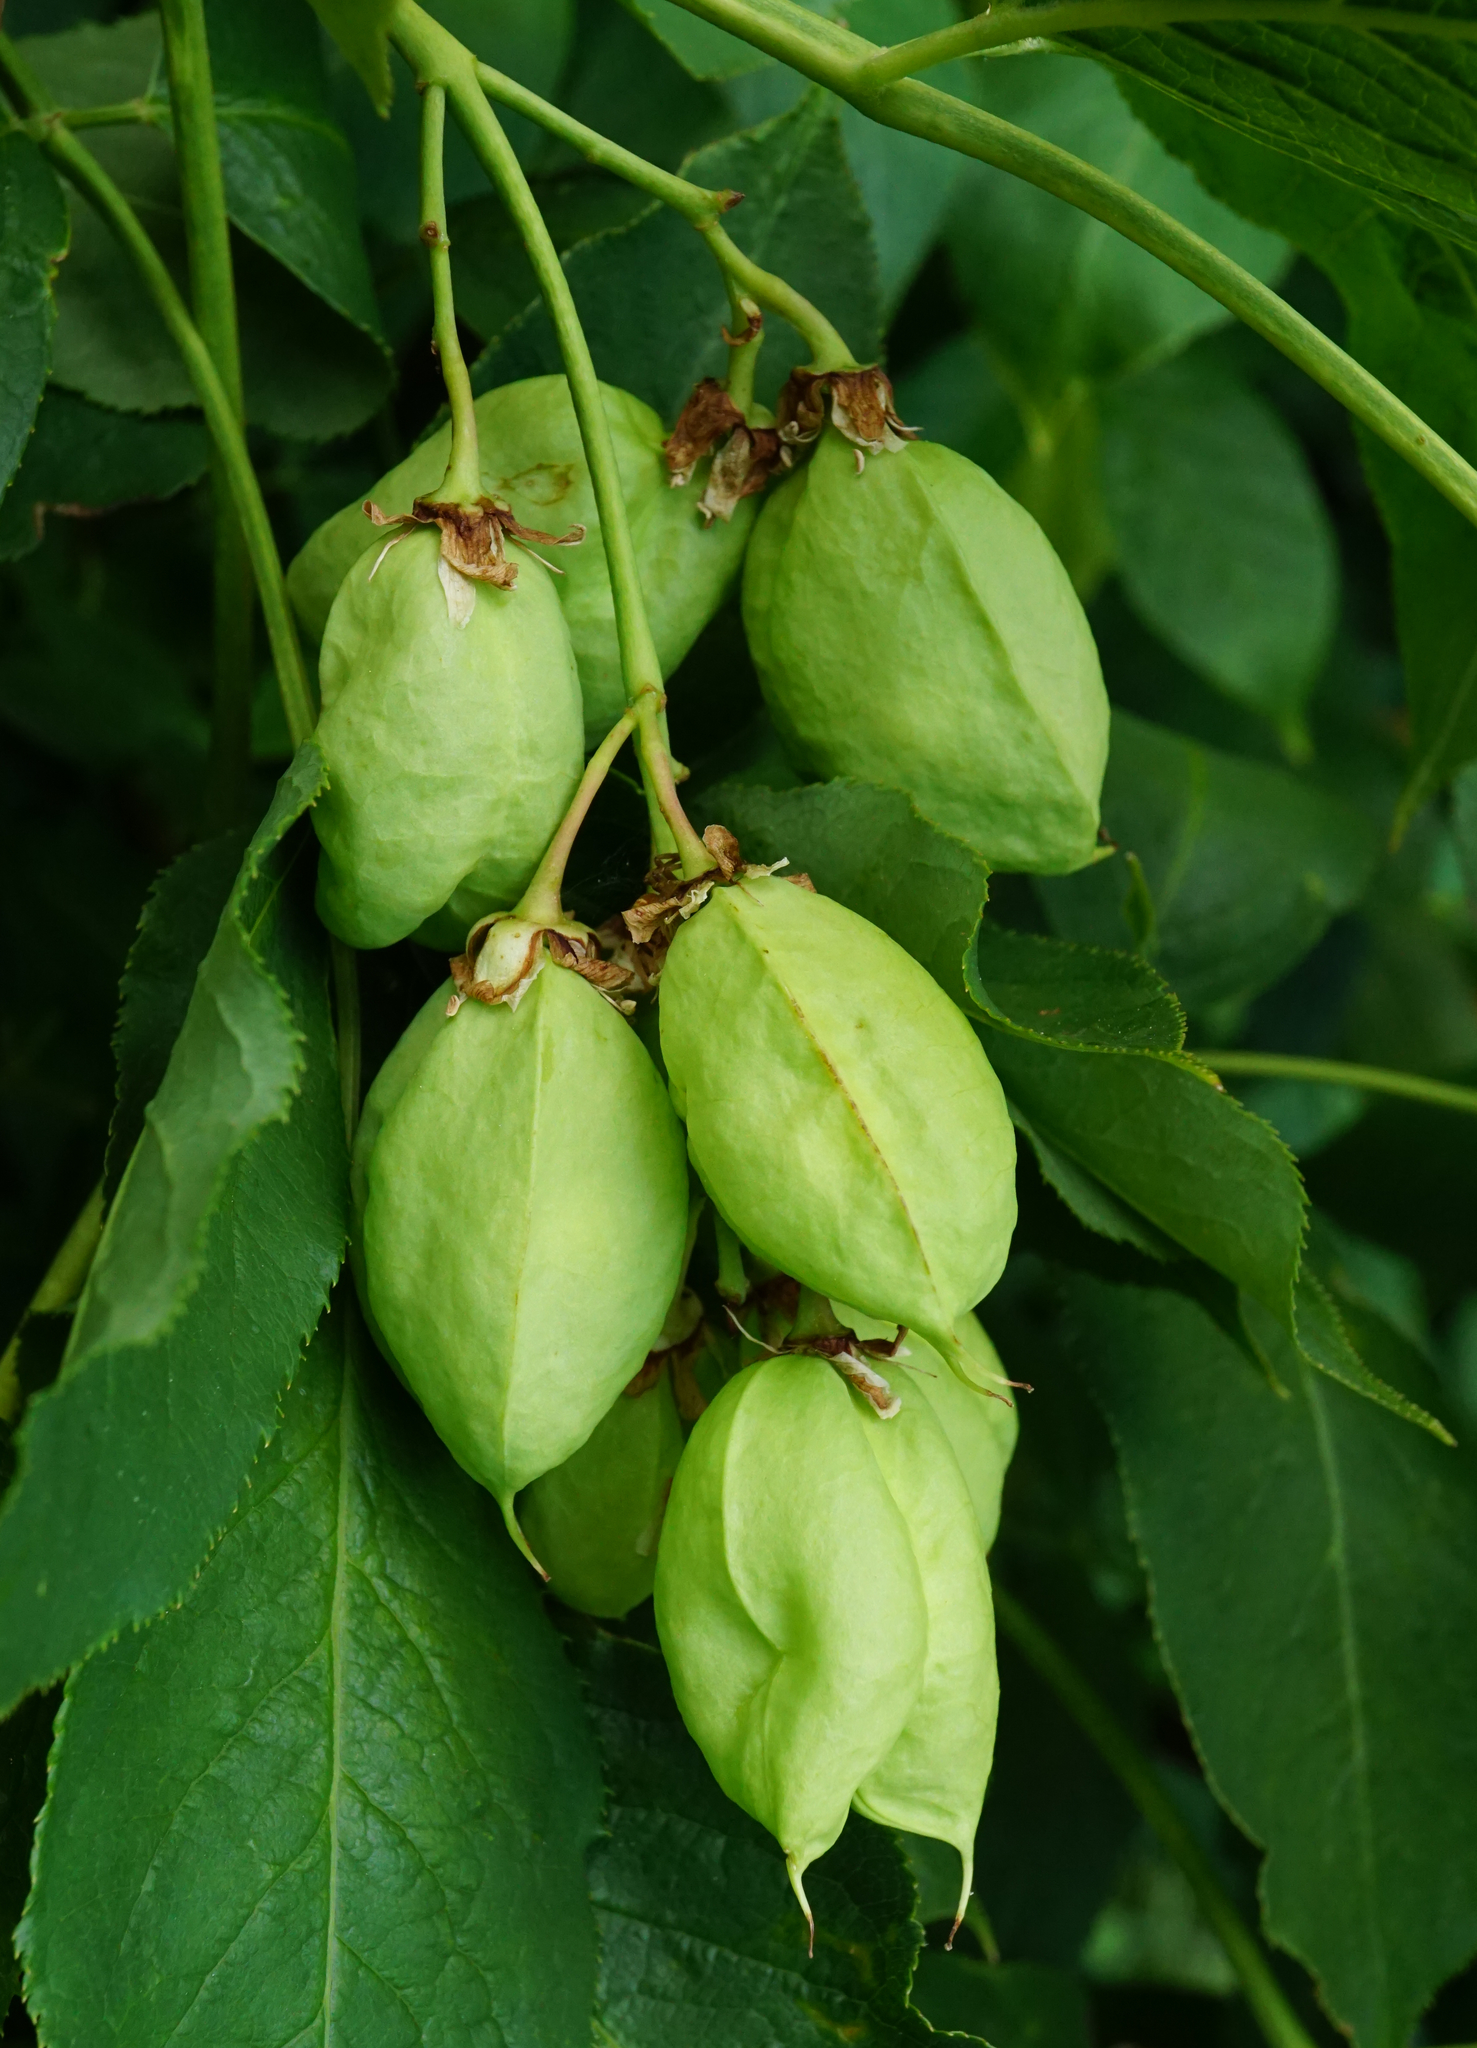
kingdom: Plantae
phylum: Tracheophyta
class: Magnoliopsida
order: Crossosomatales
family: Staphyleaceae
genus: Staphylea
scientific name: Staphylea pinnata
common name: Bladdernut
